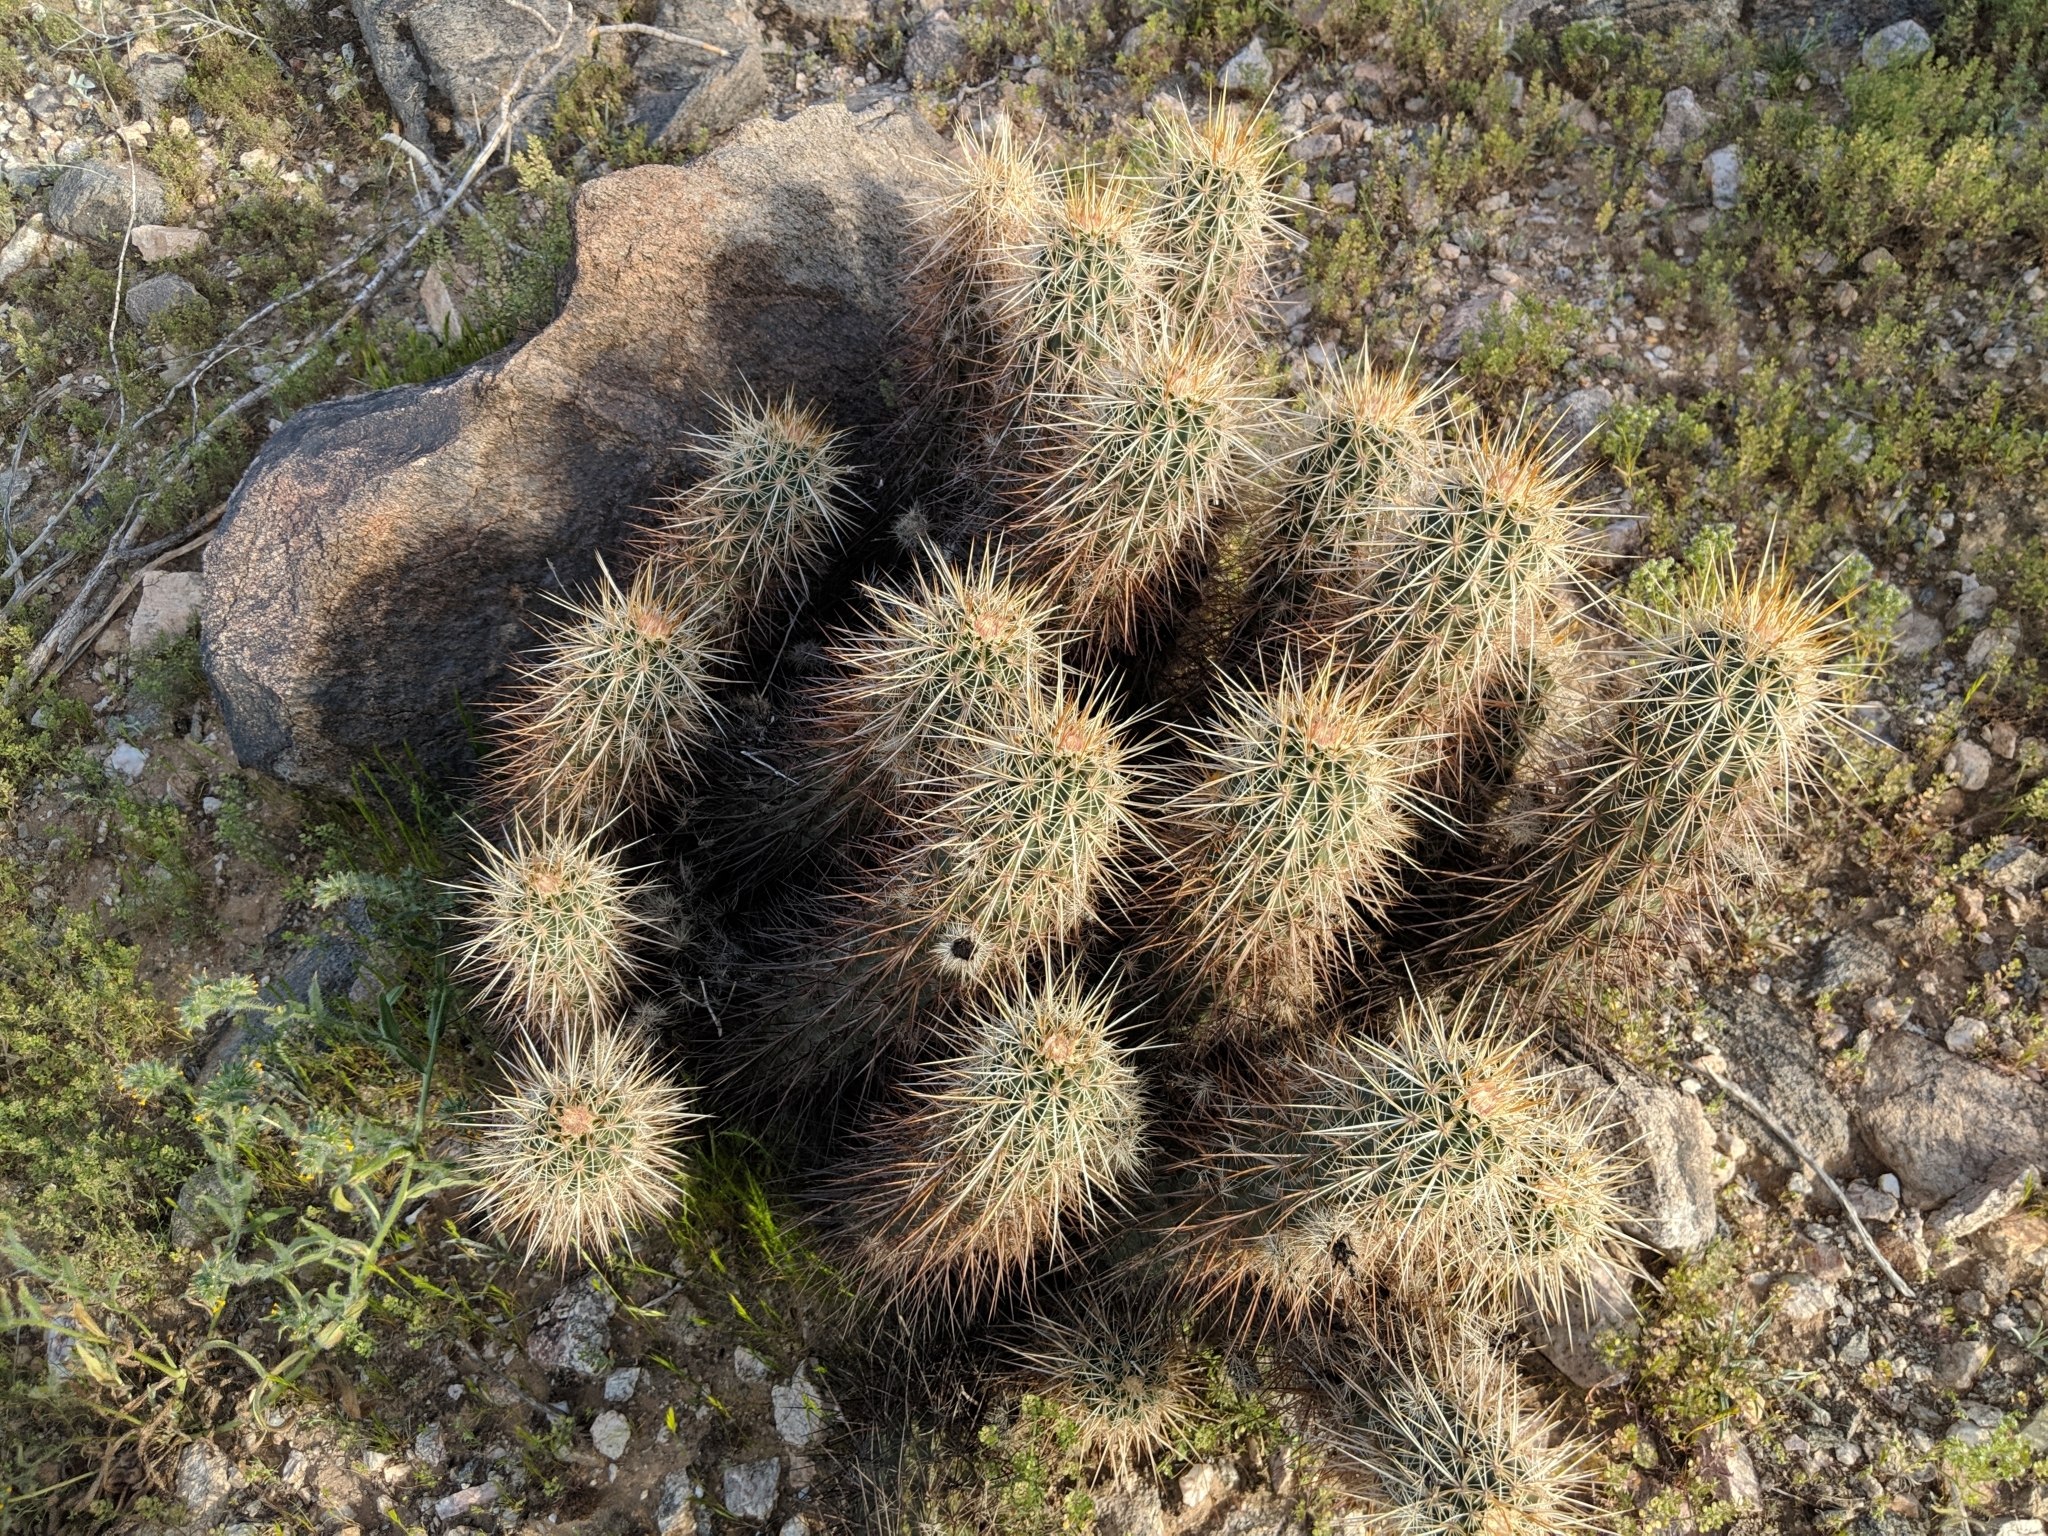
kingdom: Plantae
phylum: Tracheophyta
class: Magnoliopsida
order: Caryophyllales
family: Cactaceae
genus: Echinocereus
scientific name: Echinocereus engelmannii
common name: Engelmann's hedgehog cactus
